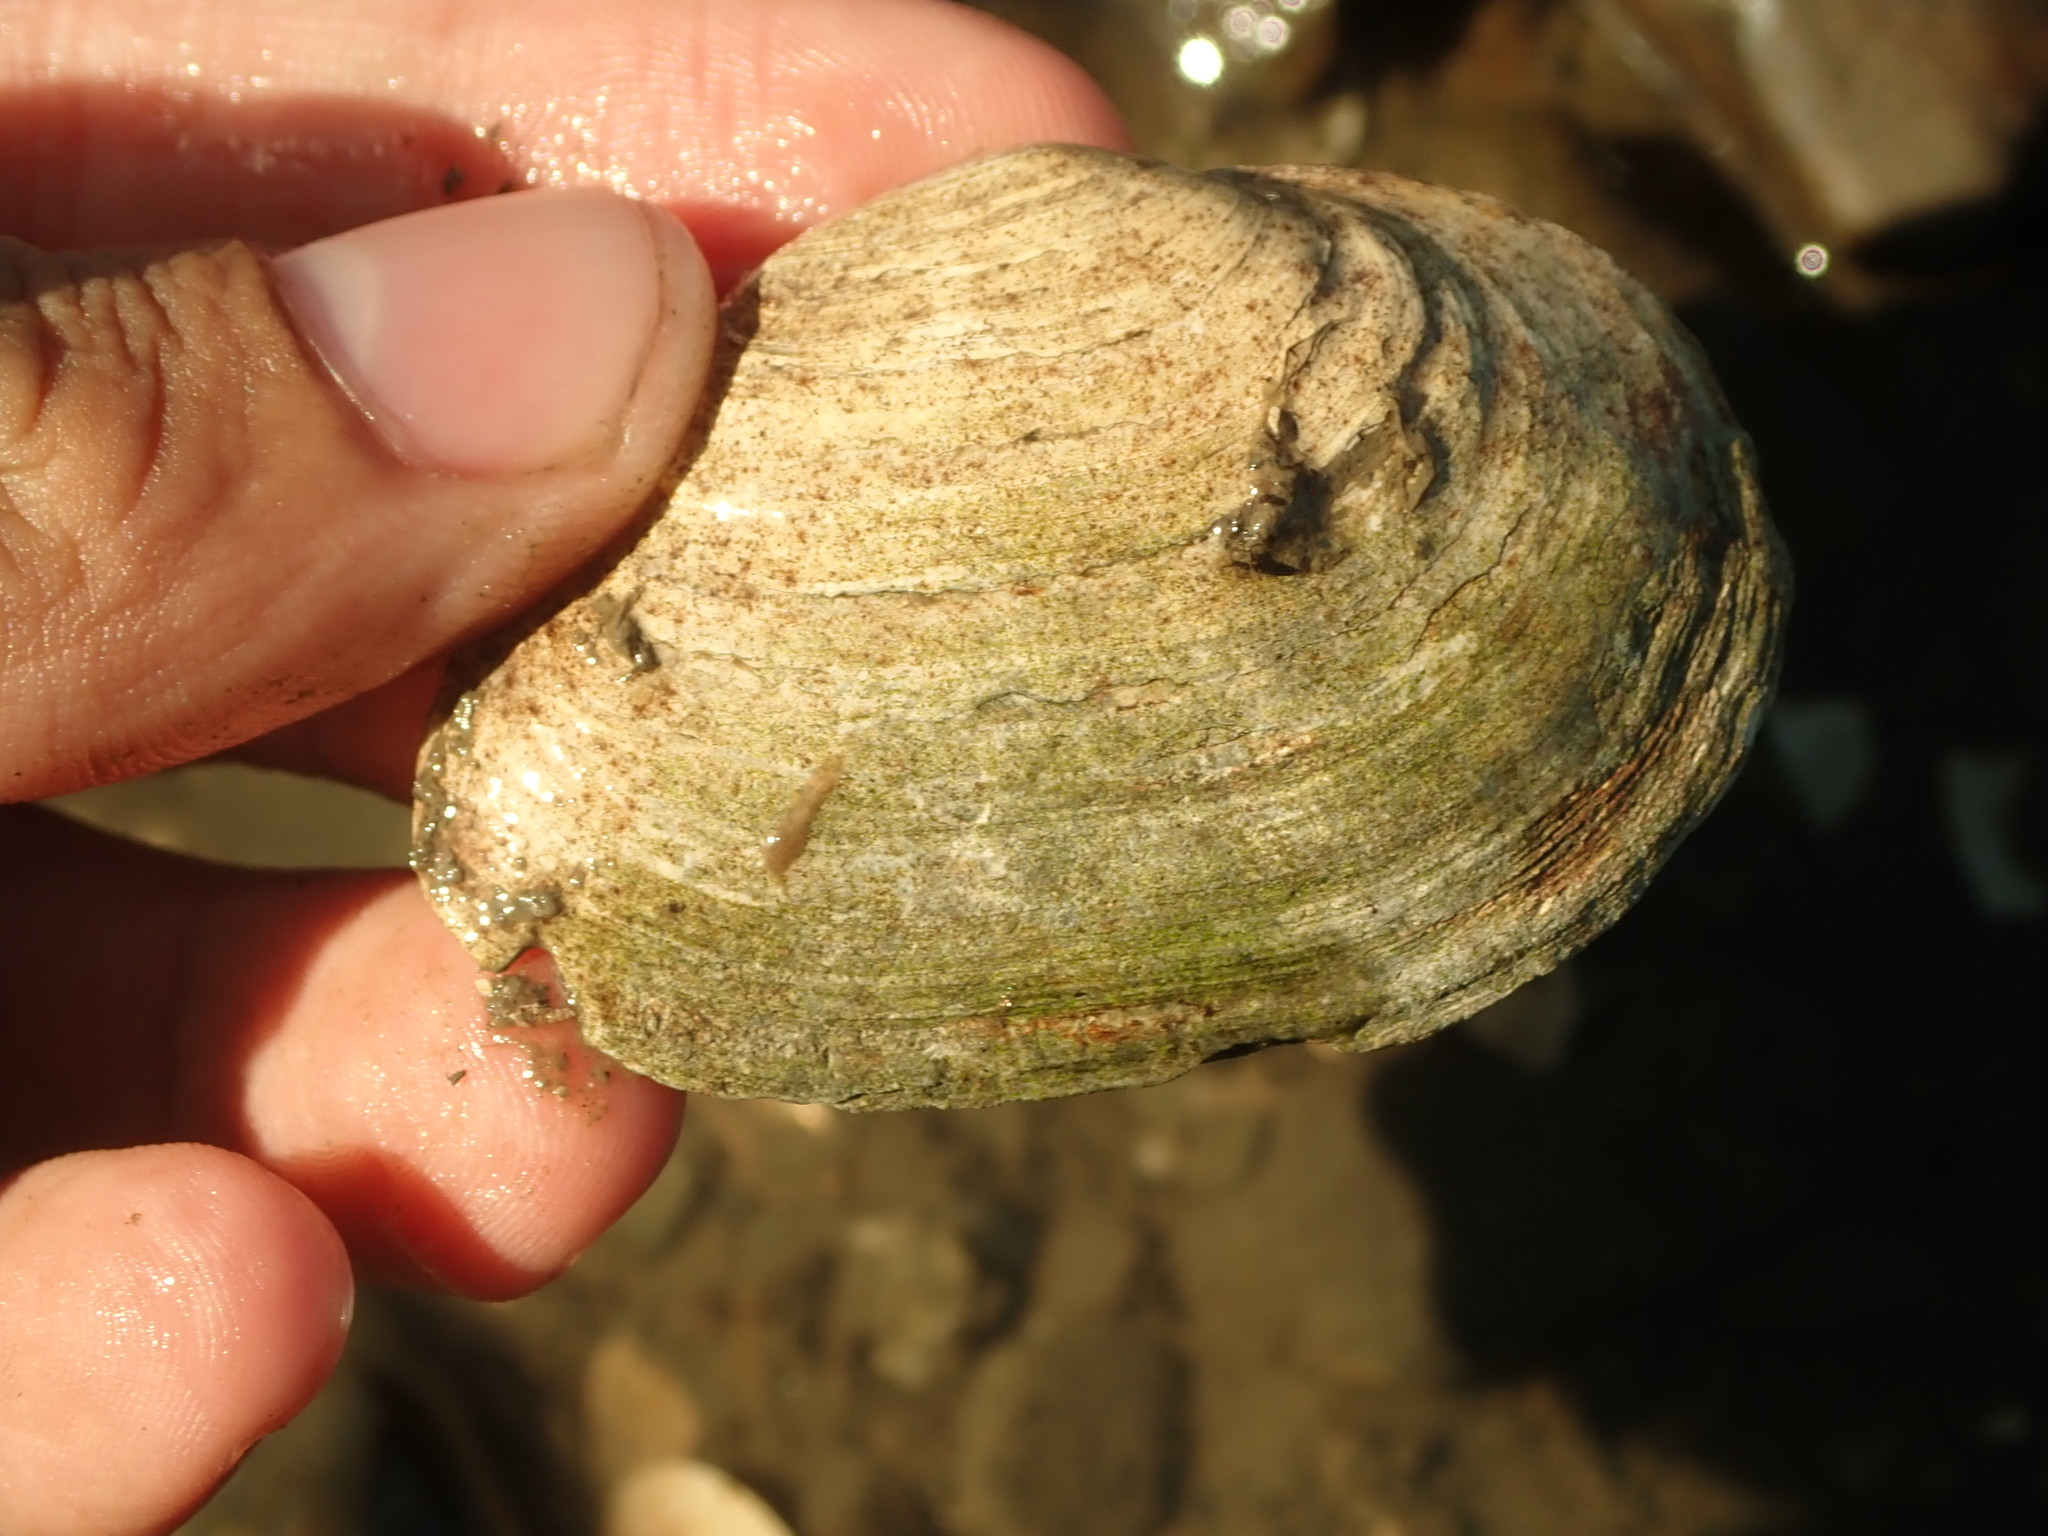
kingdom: Animalia
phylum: Mollusca
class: Bivalvia
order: Myida
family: Myidae
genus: Mya
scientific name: Mya arenaria
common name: Soft-shelled clam
